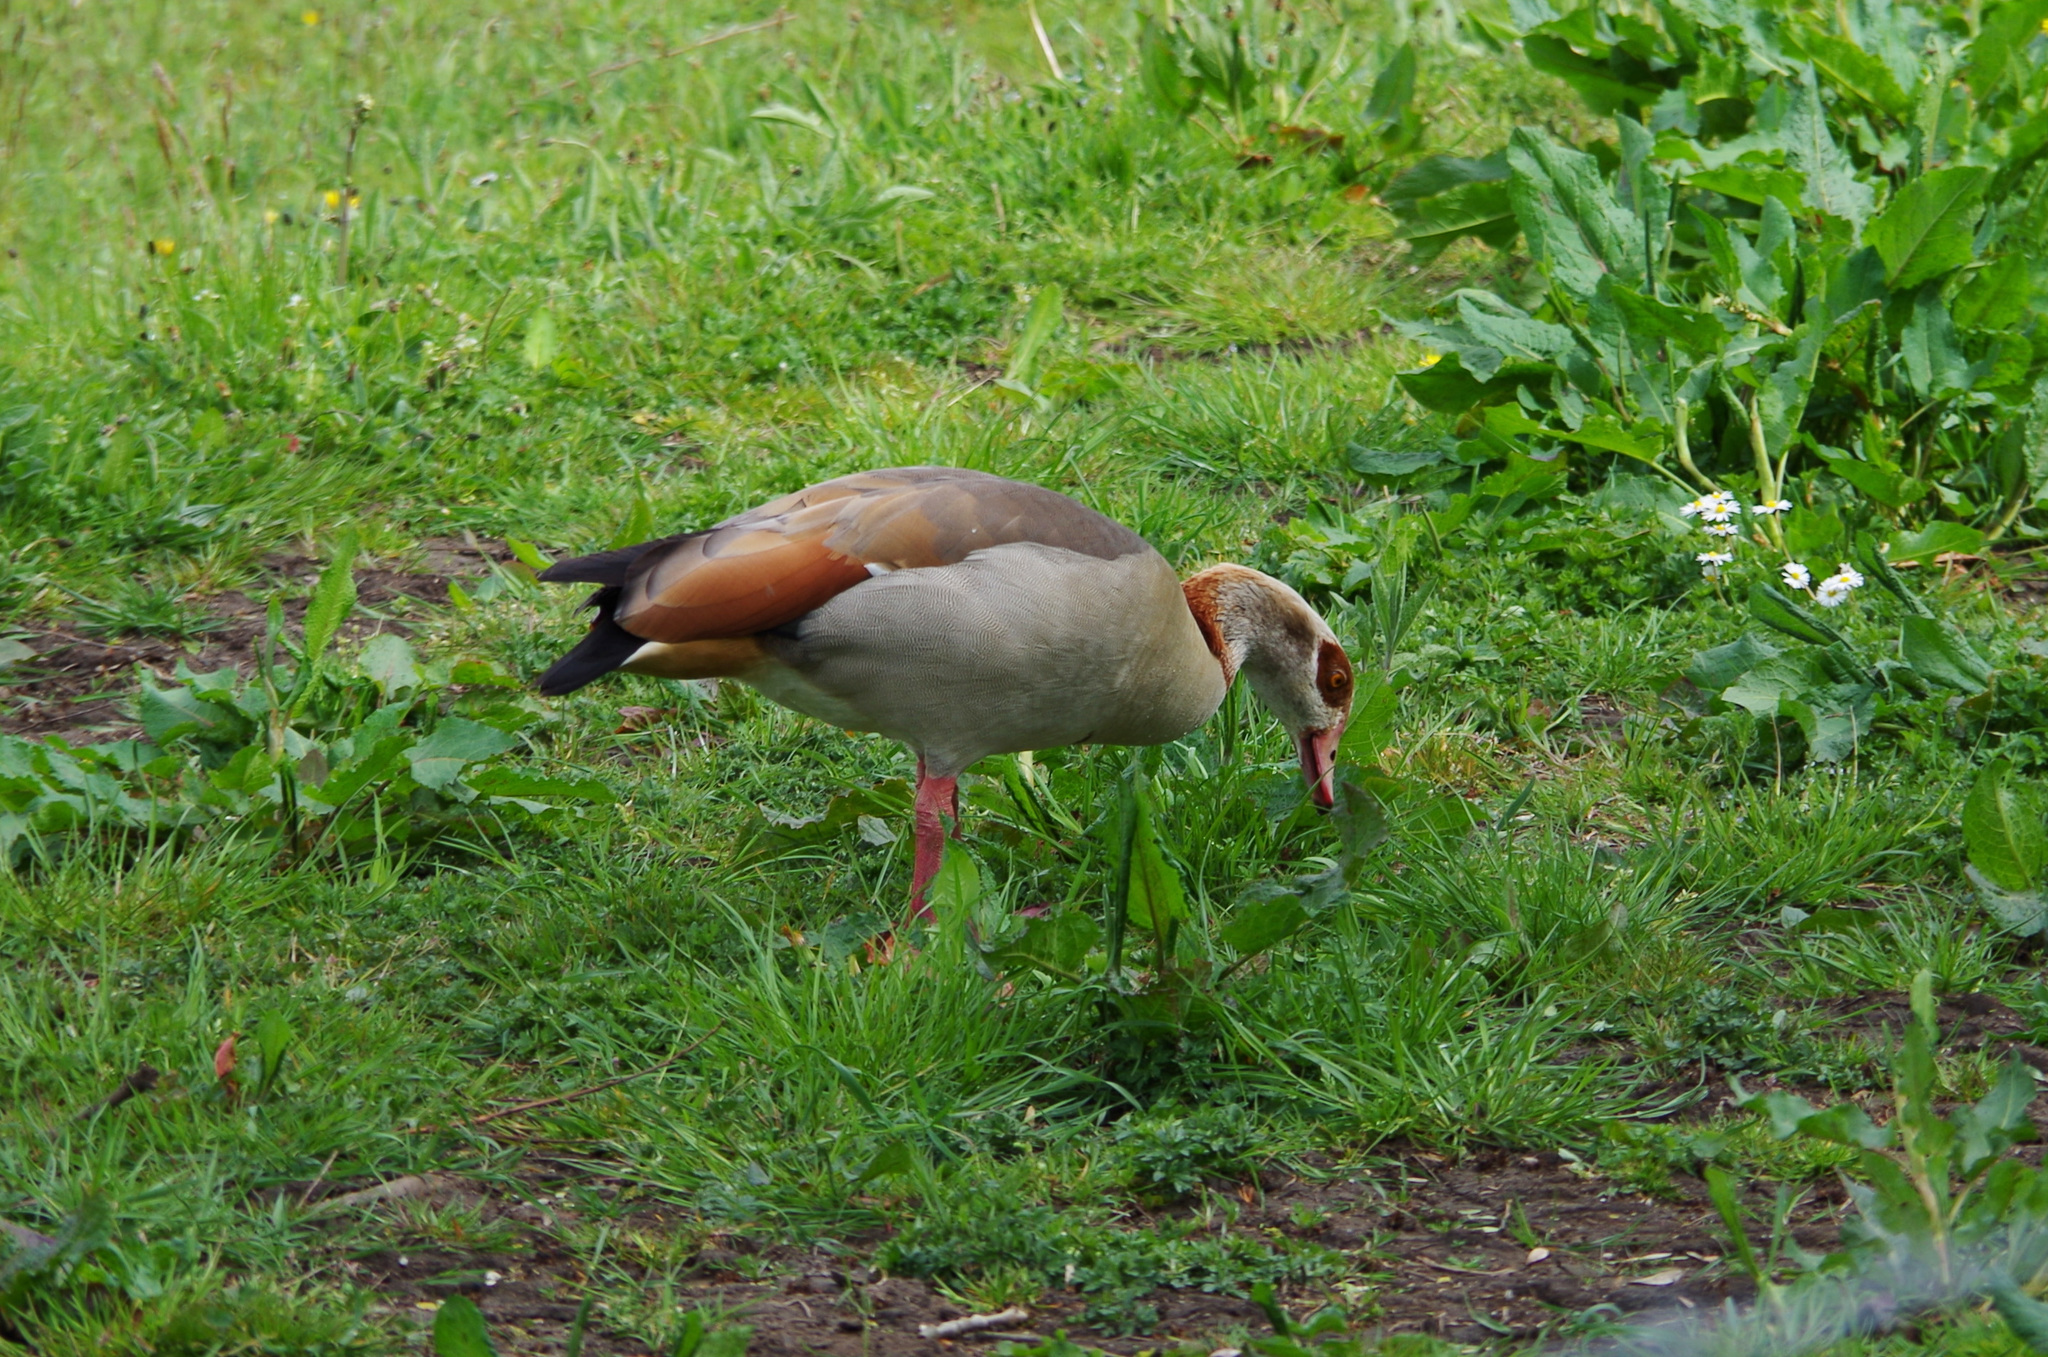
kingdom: Animalia
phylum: Chordata
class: Aves
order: Anseriformes
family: Anatidae
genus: Alopochen
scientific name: Alopochen aegyptiaca
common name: Egyptian goose
